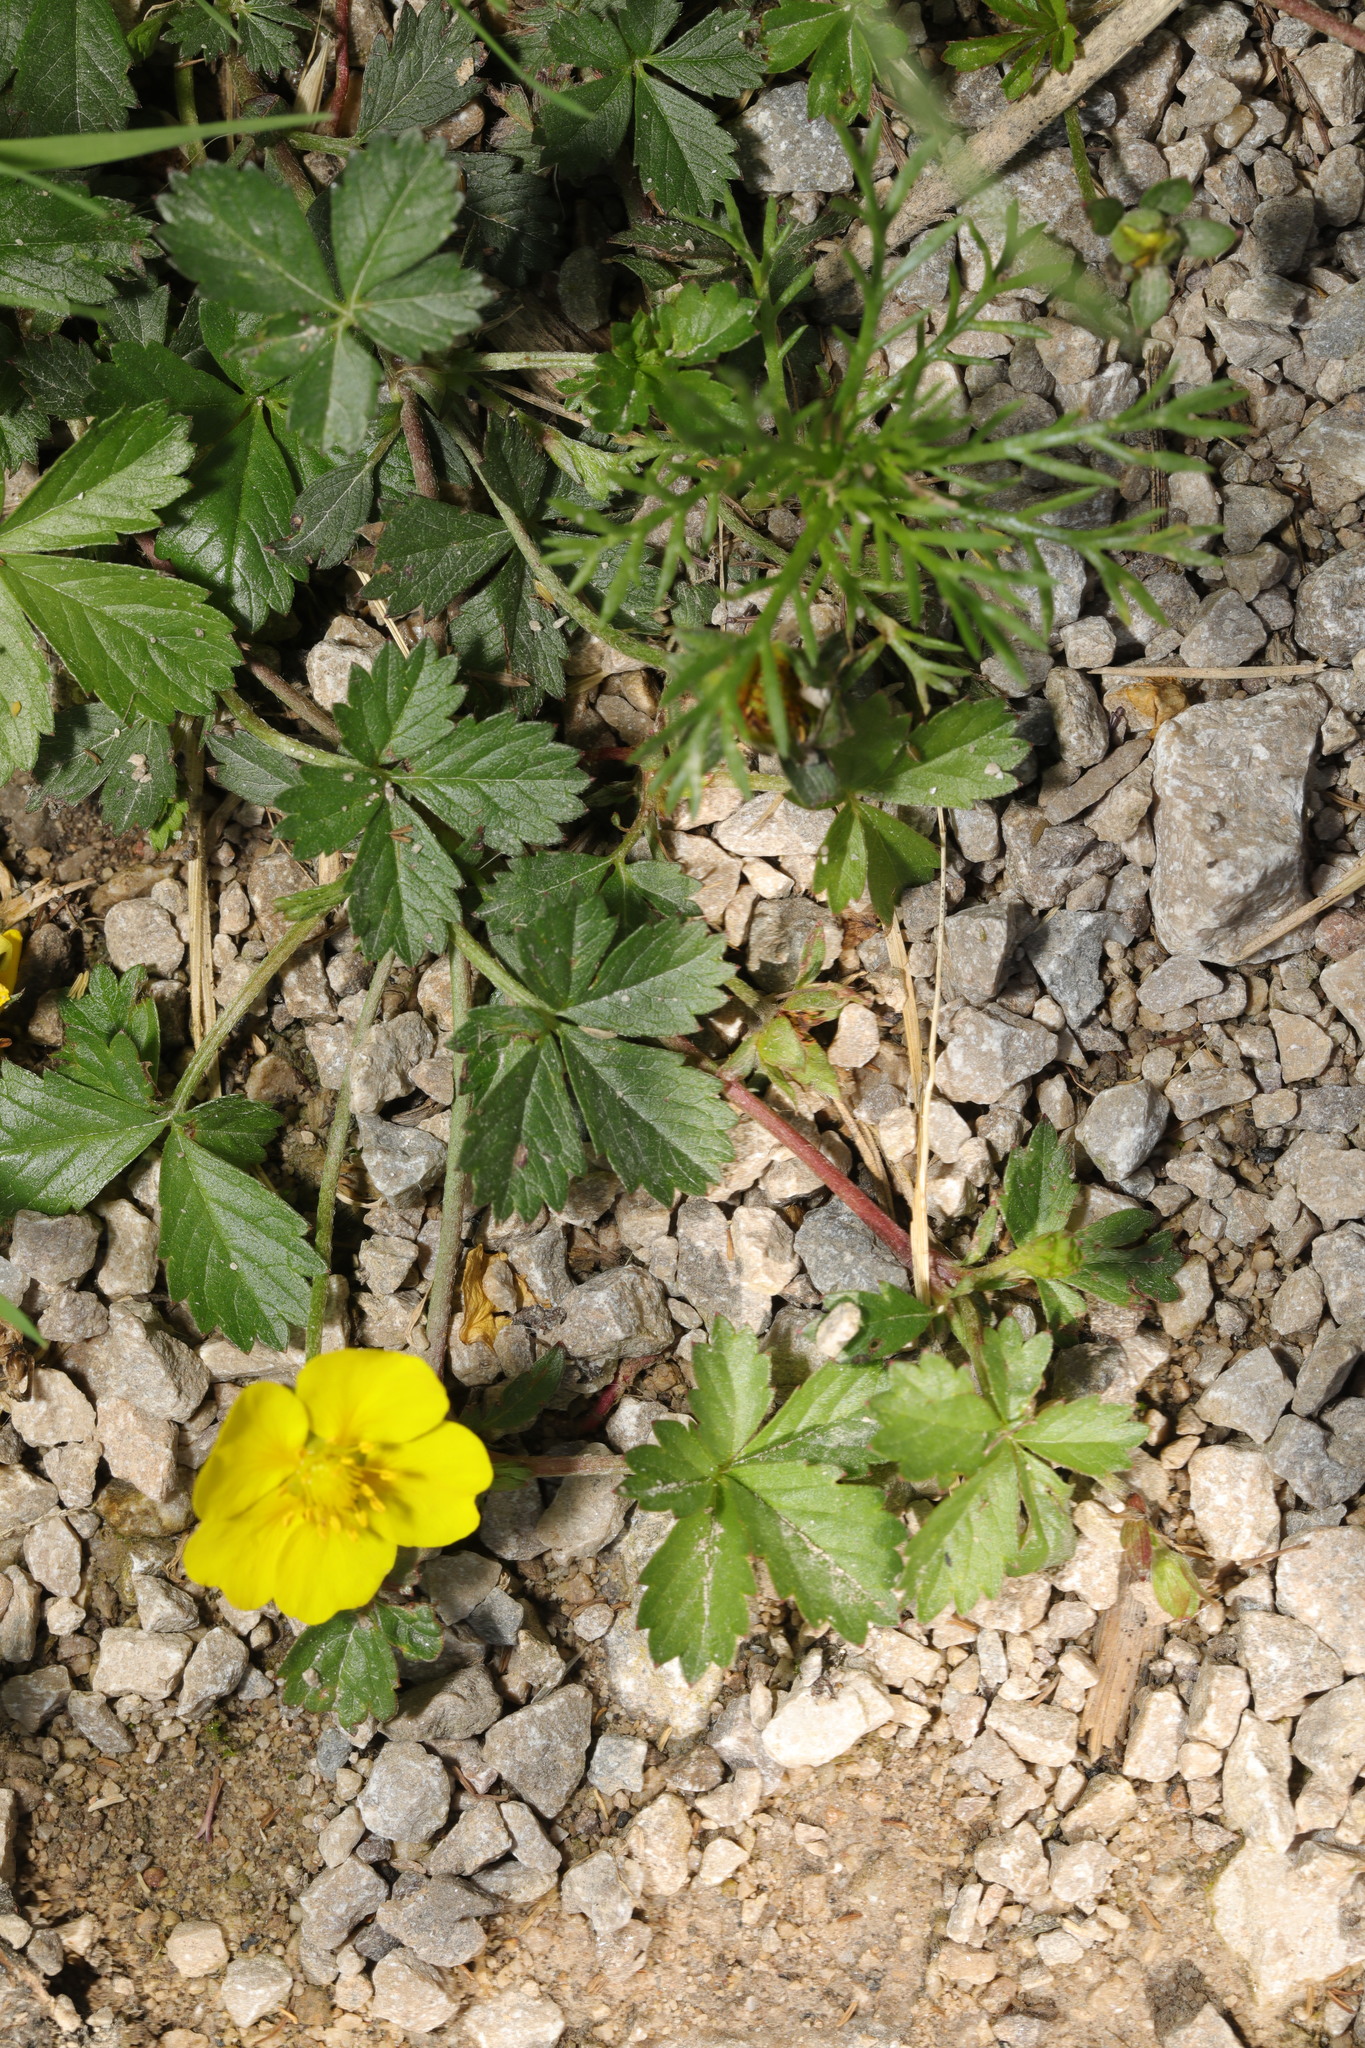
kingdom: Plantae
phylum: Tracheophyta
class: Magnoliopsida
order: Rosales
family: Rosaceae
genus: Potentilla
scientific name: Potentilla reptans
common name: Creeping cinquefoil
